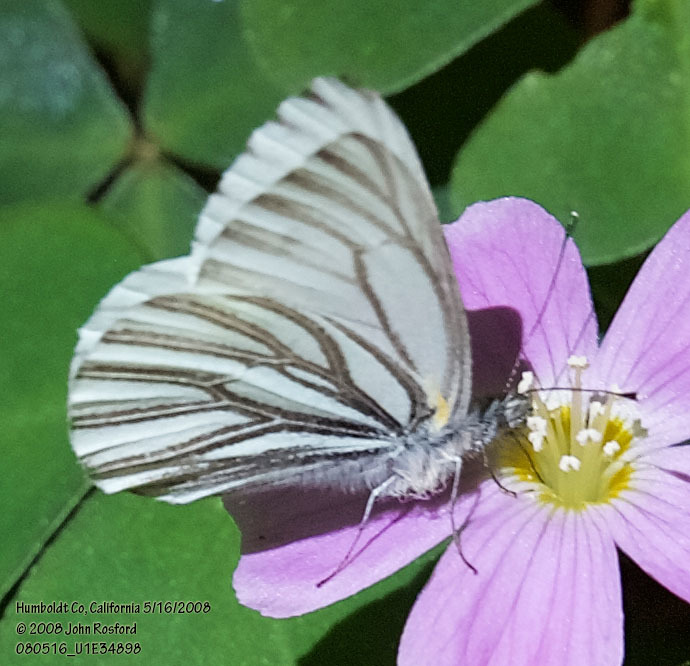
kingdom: Animalia
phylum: Arthropoda
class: Insecta
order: Lepidoptera
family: Pieridae
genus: Pieris
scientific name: Pieris marginalis
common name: Margined white
